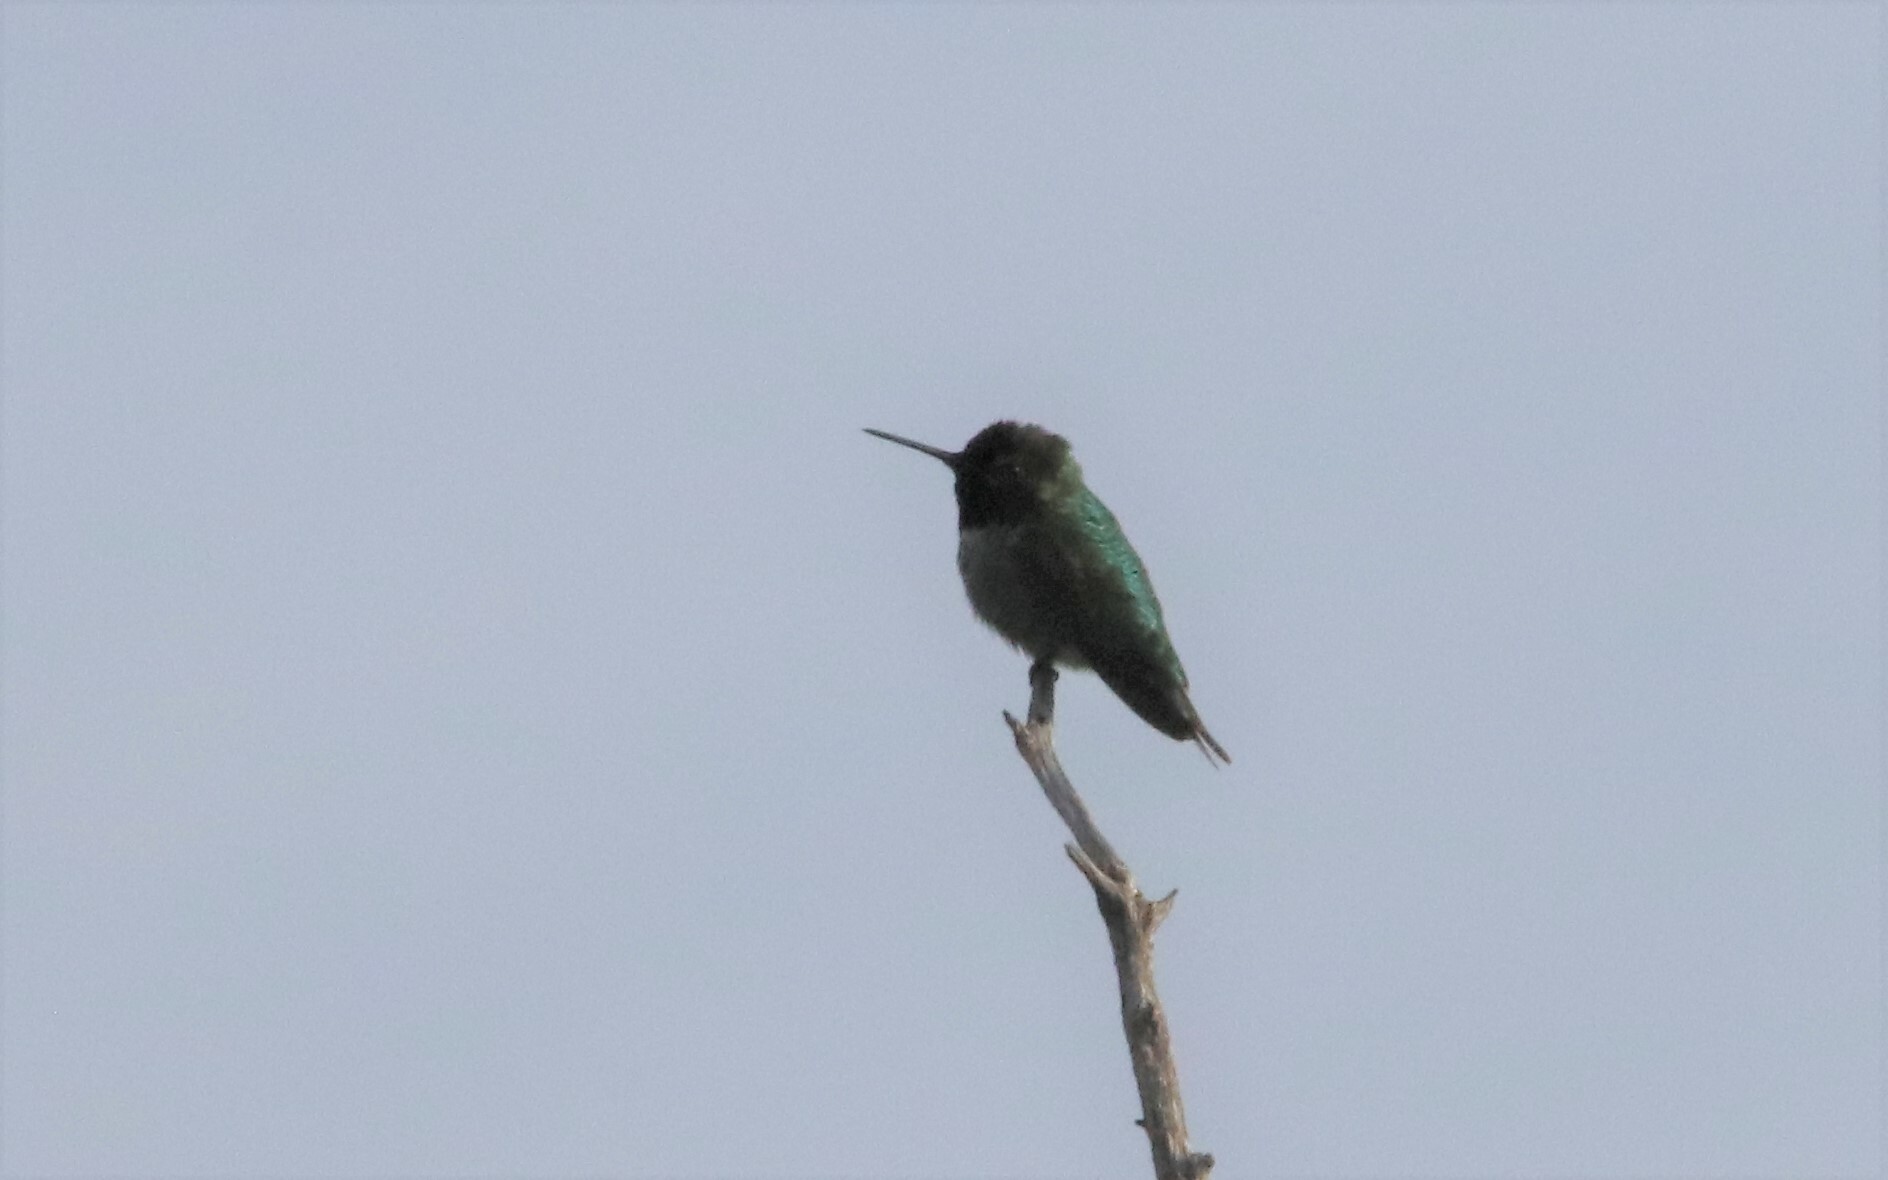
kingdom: Animalia
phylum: Chordata
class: Aves
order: Apodiformes
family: Trochilidae
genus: Calypte
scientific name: Calypte anna
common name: Anna's hummingbird
